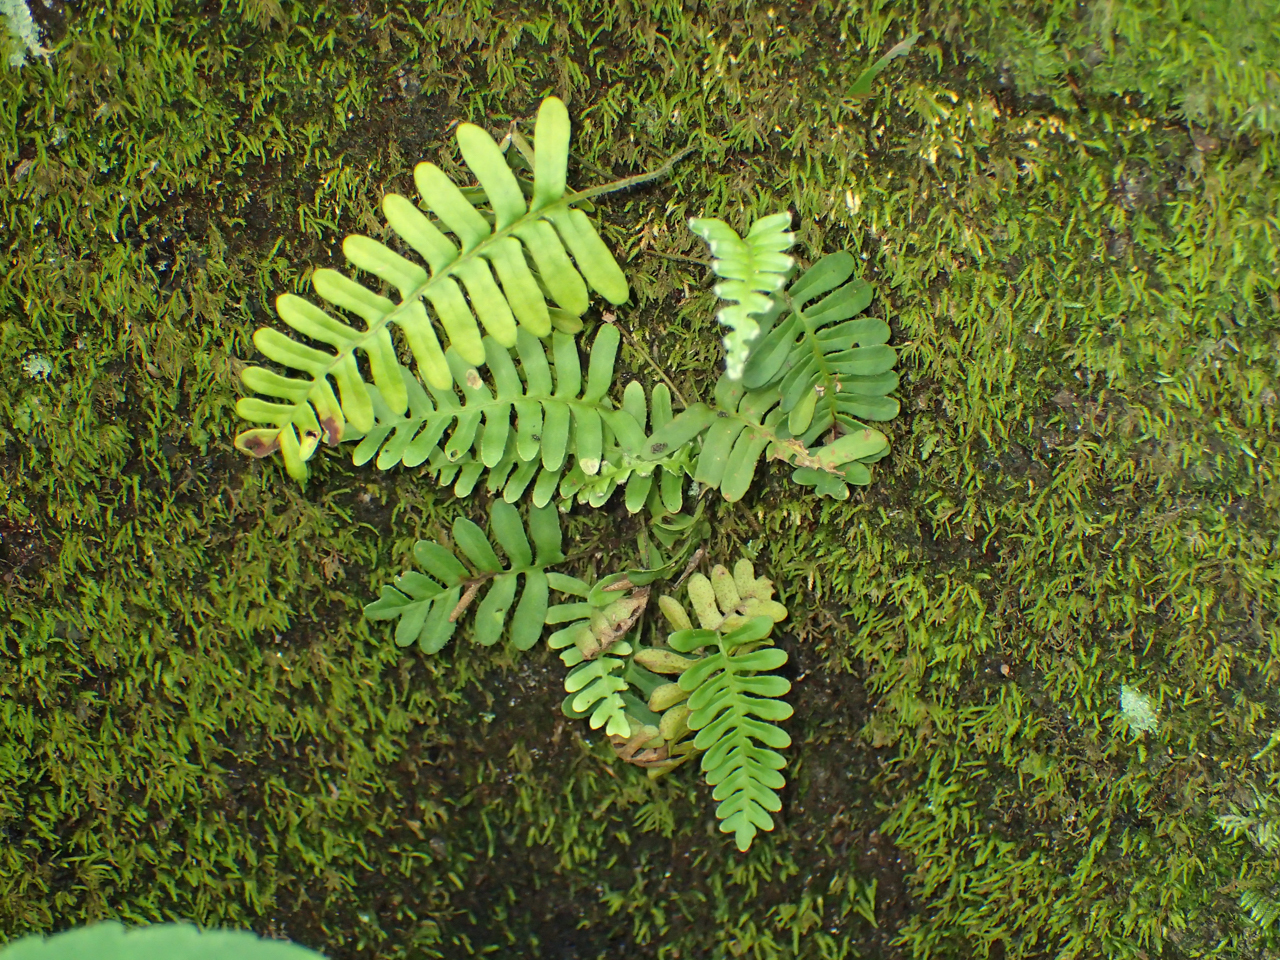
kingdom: Plantae
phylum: Tracheophyta
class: Polypodiopsida
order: Polypodiales
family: Polypodiaceae
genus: Pleopeltis
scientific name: Pleopeltis michauxiana
